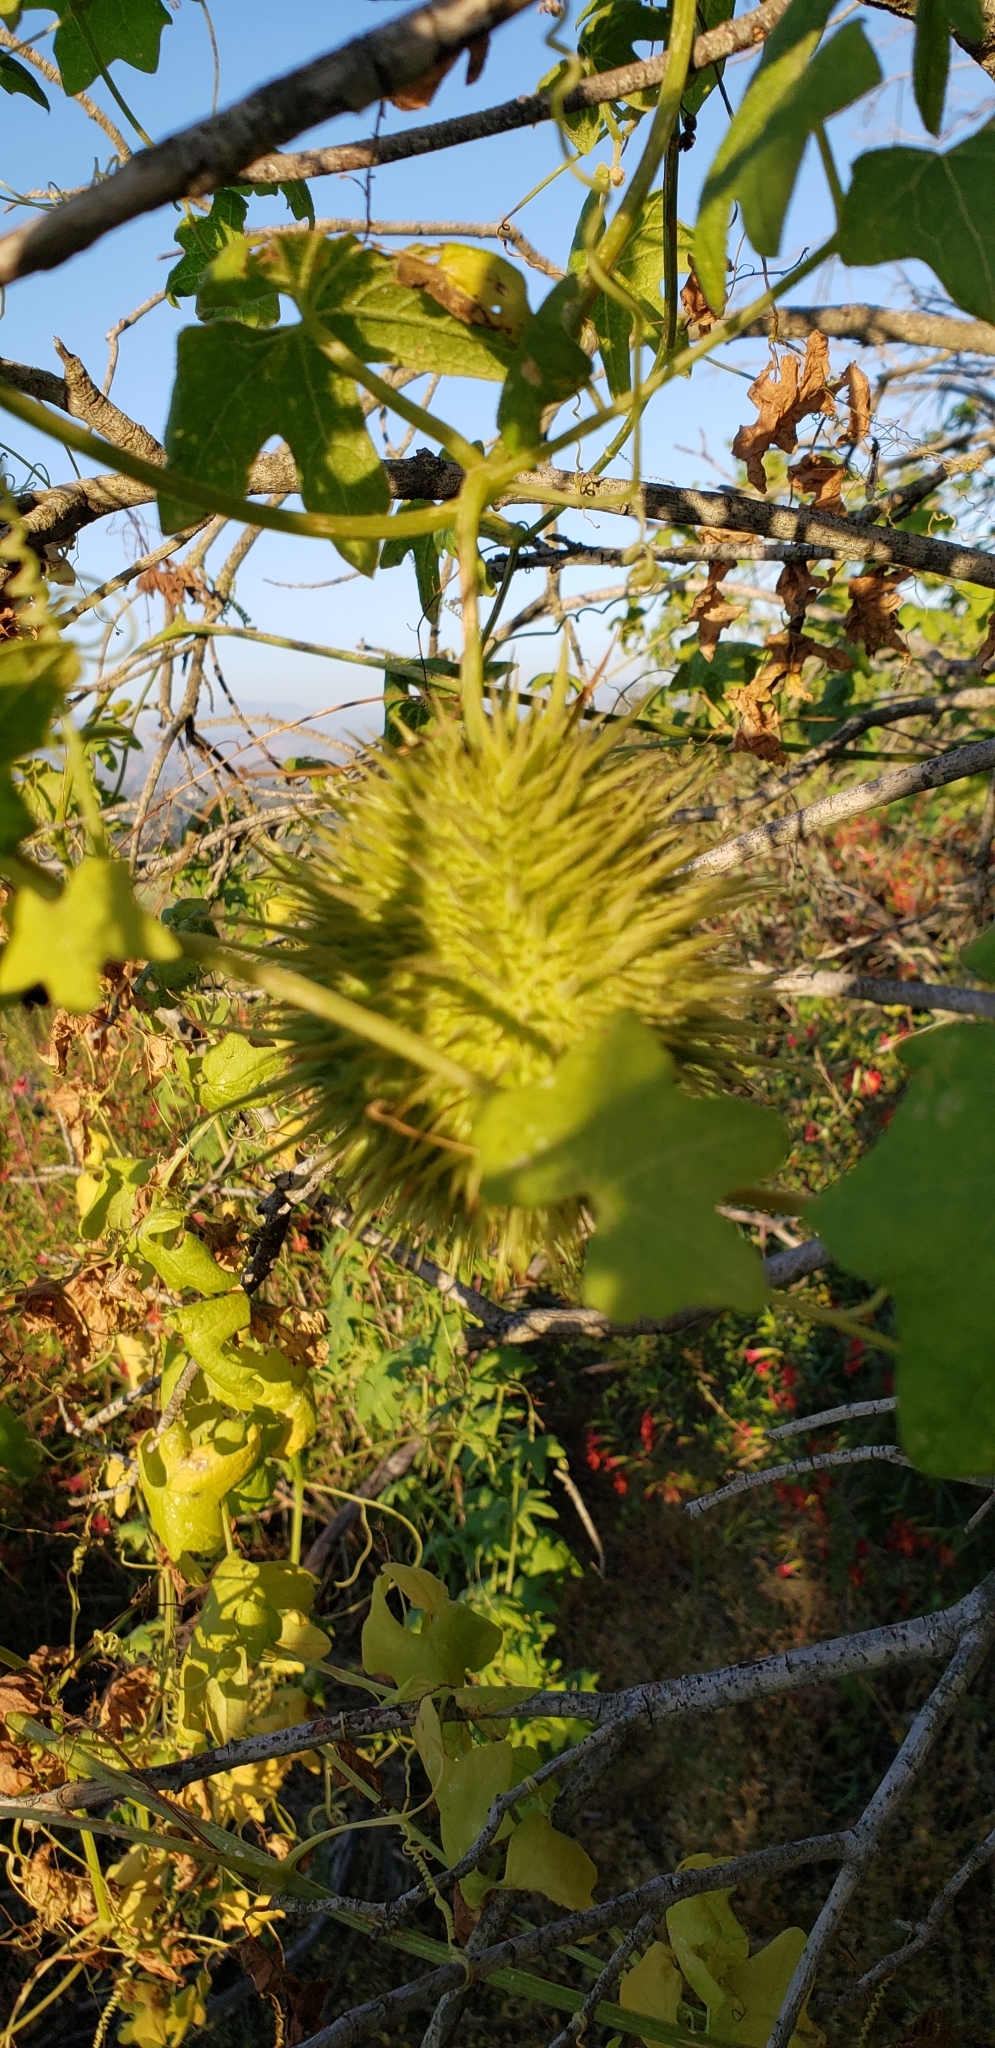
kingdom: Plantae
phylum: Tracheophyta
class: Magnoliopsida
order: Cucurbitales
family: Cucurbitaceae
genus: Marah
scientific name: Marah macrocarpa
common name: Cucamonga manroot
